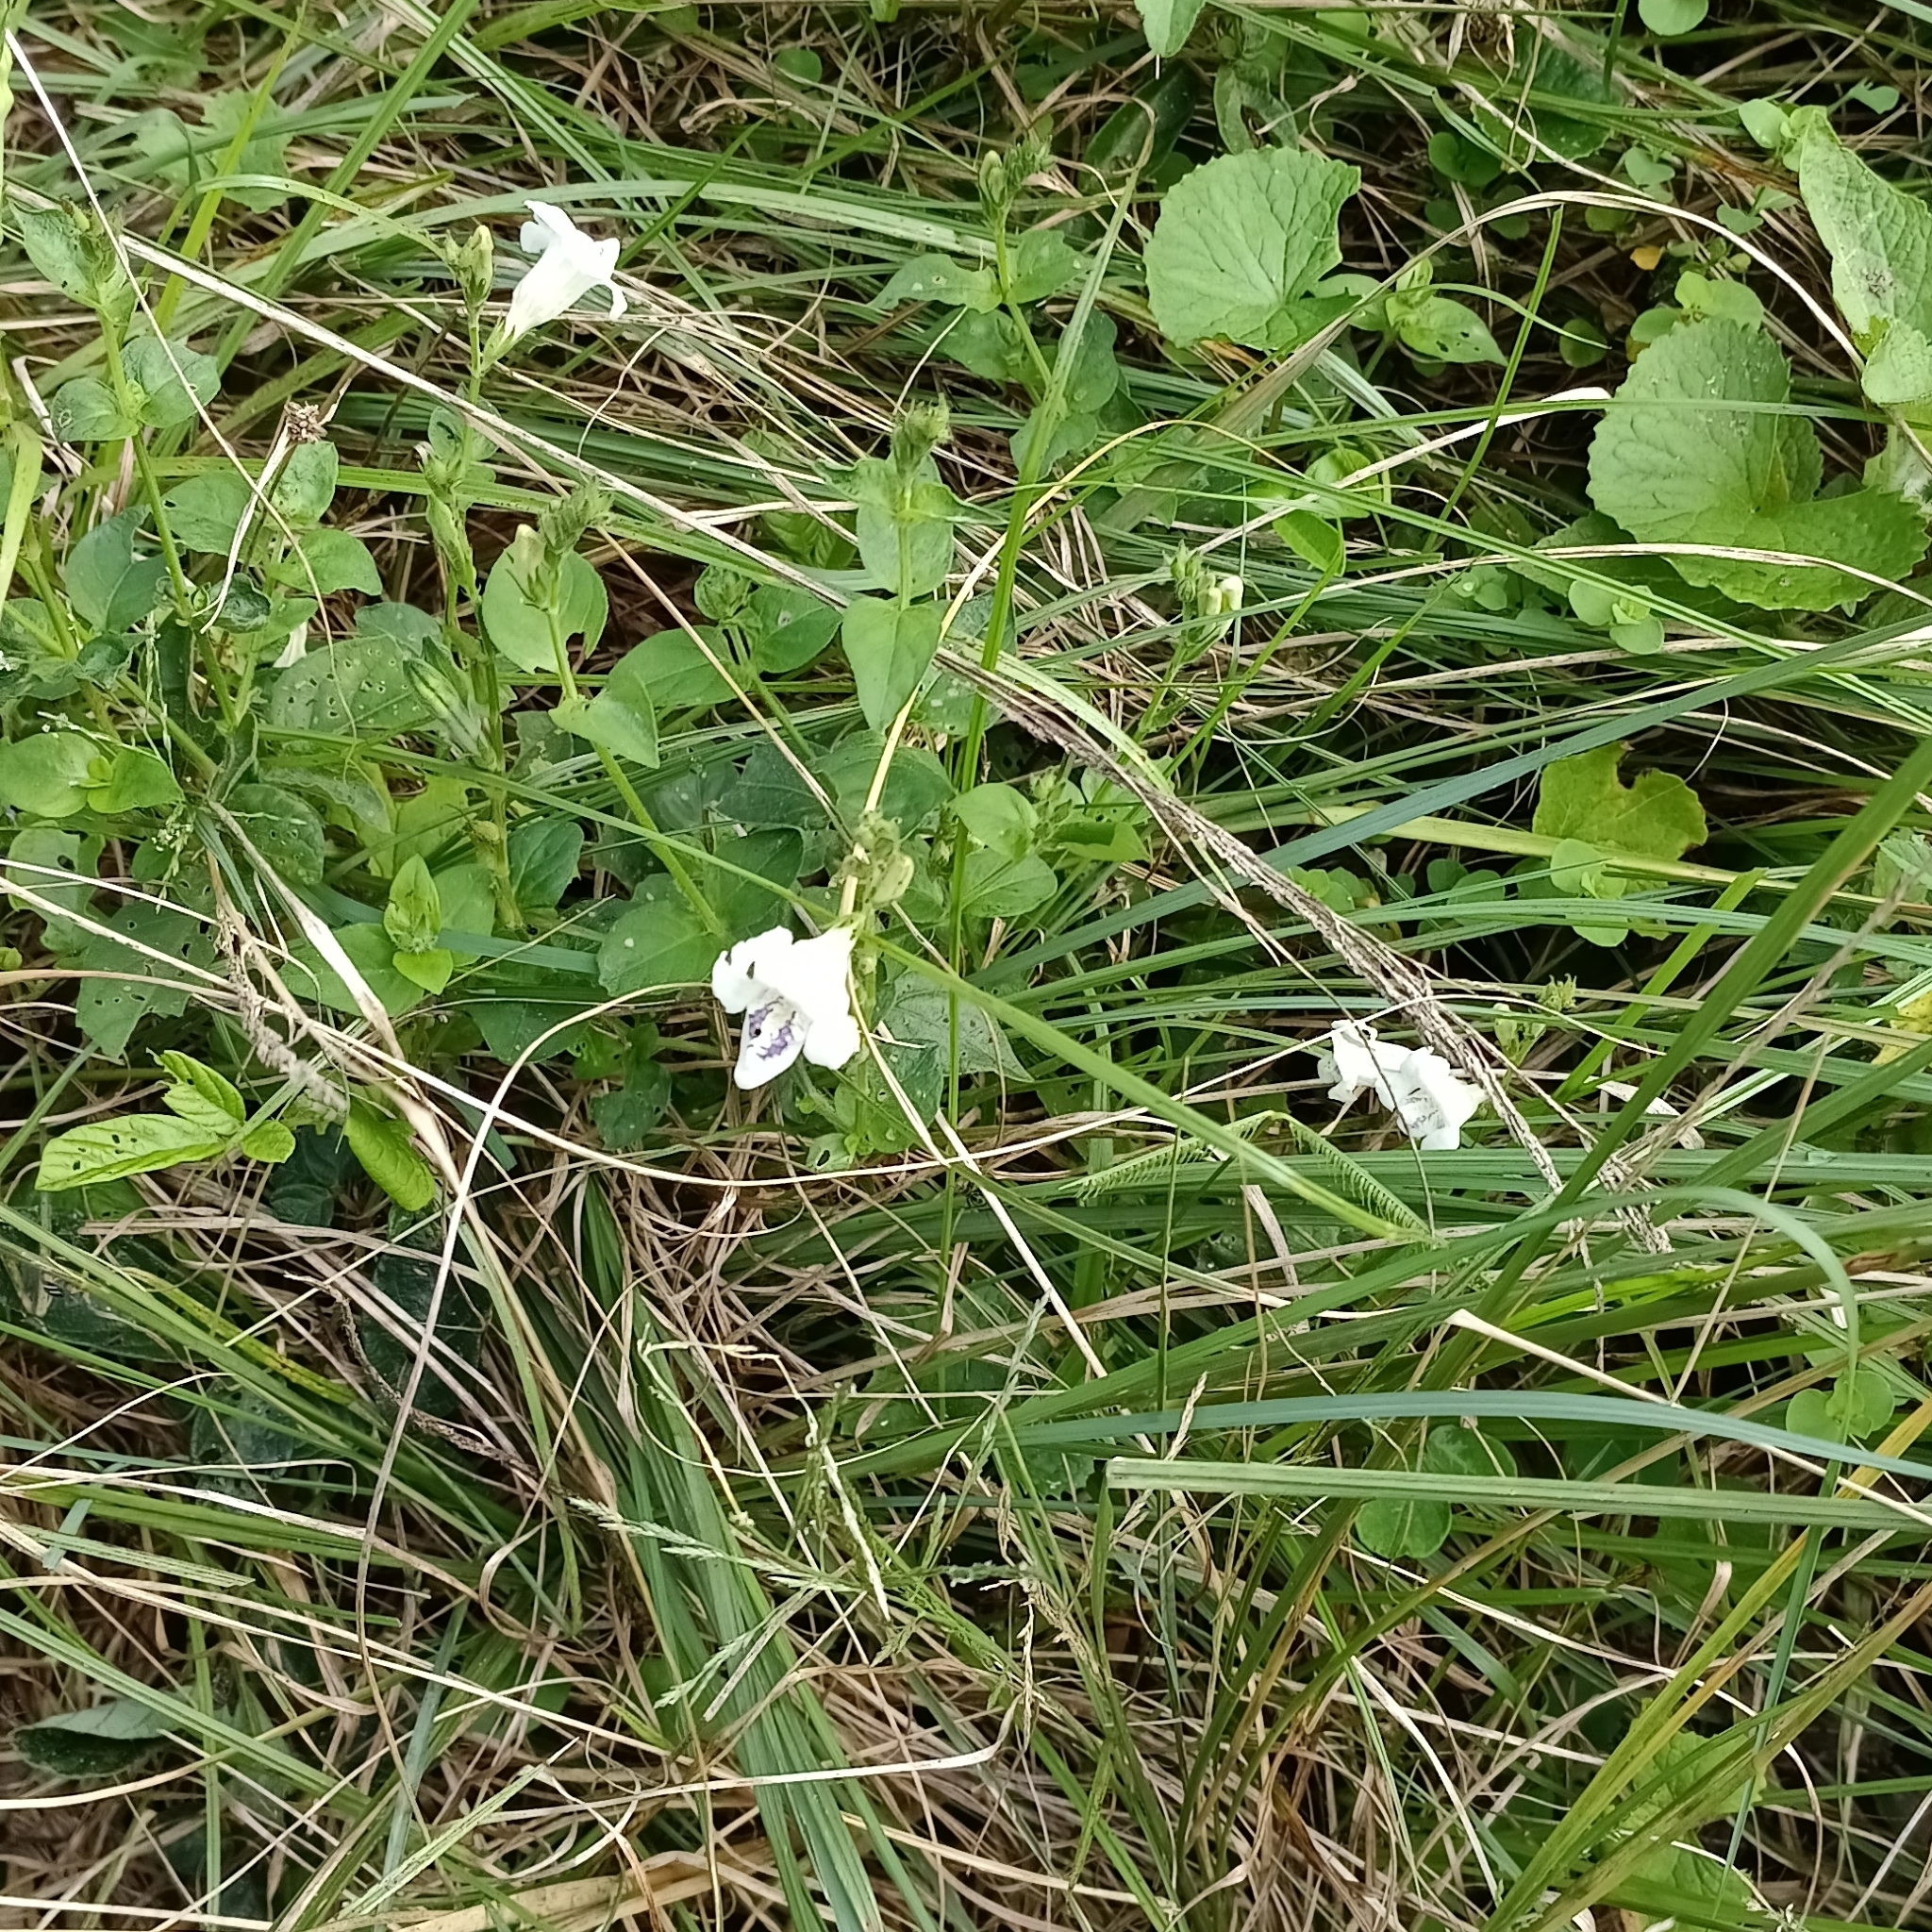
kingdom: Plantae
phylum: Tracheophyta
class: Magnoliopsida
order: Lamiales
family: Acanthaceae
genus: Asystasia
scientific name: Asystasia intrusa
